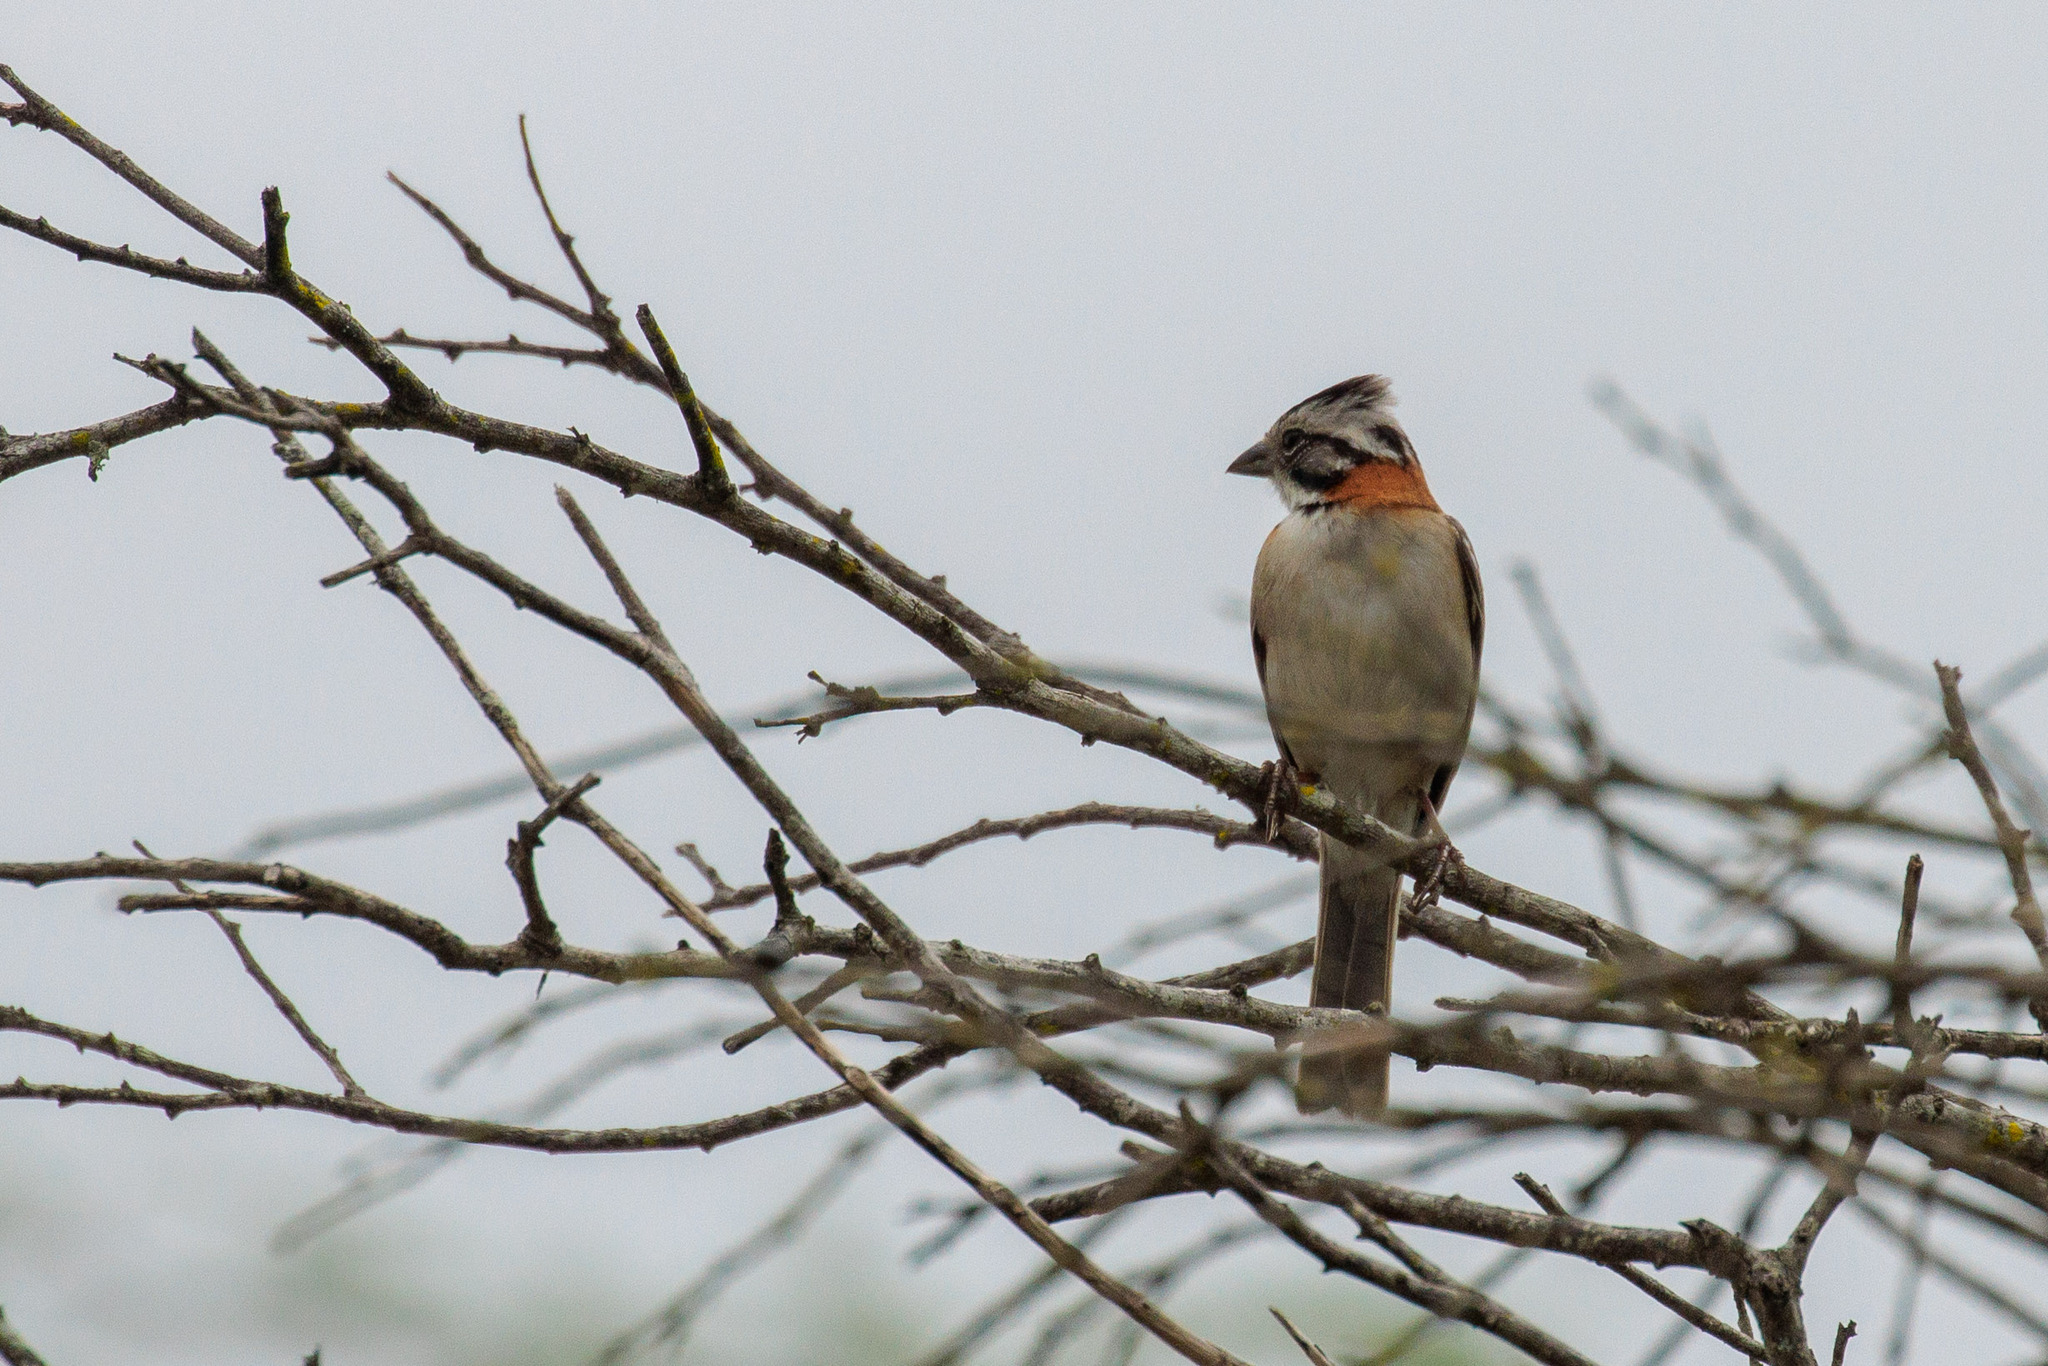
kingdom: Animalia
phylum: Chordata
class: Aves
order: Passeriformes
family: Passerellidae
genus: Zonotrichia
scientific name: Zonotrichia capensis
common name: Rufous-collared sparrow
